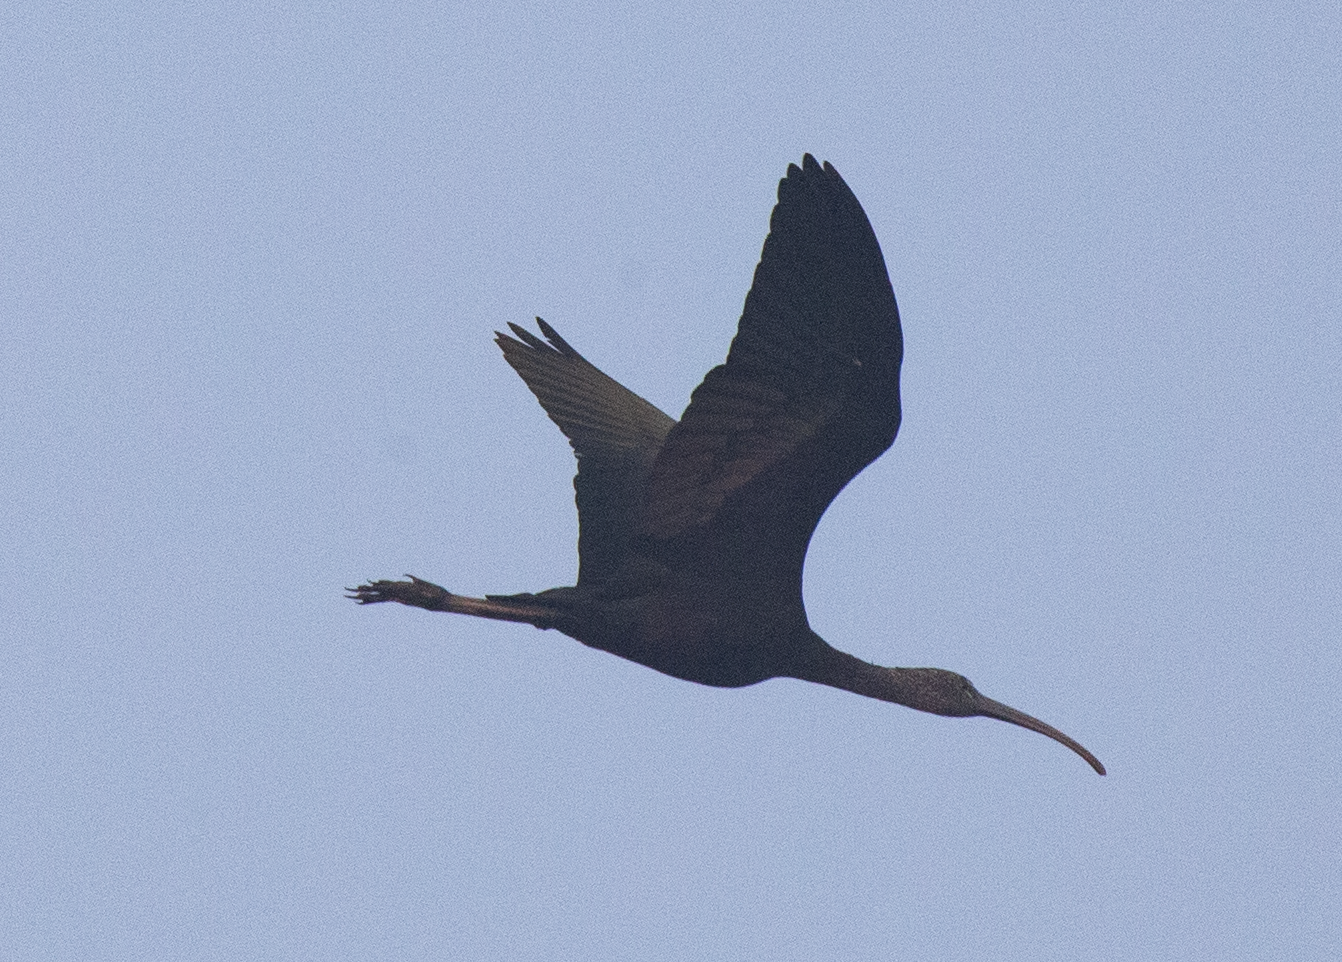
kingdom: Animalia
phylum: Chordata
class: Aves
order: Pelecaniformes
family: Threskiornithidae
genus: Plegadis
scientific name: Plegadis falcinellus
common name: Glossy ibis
